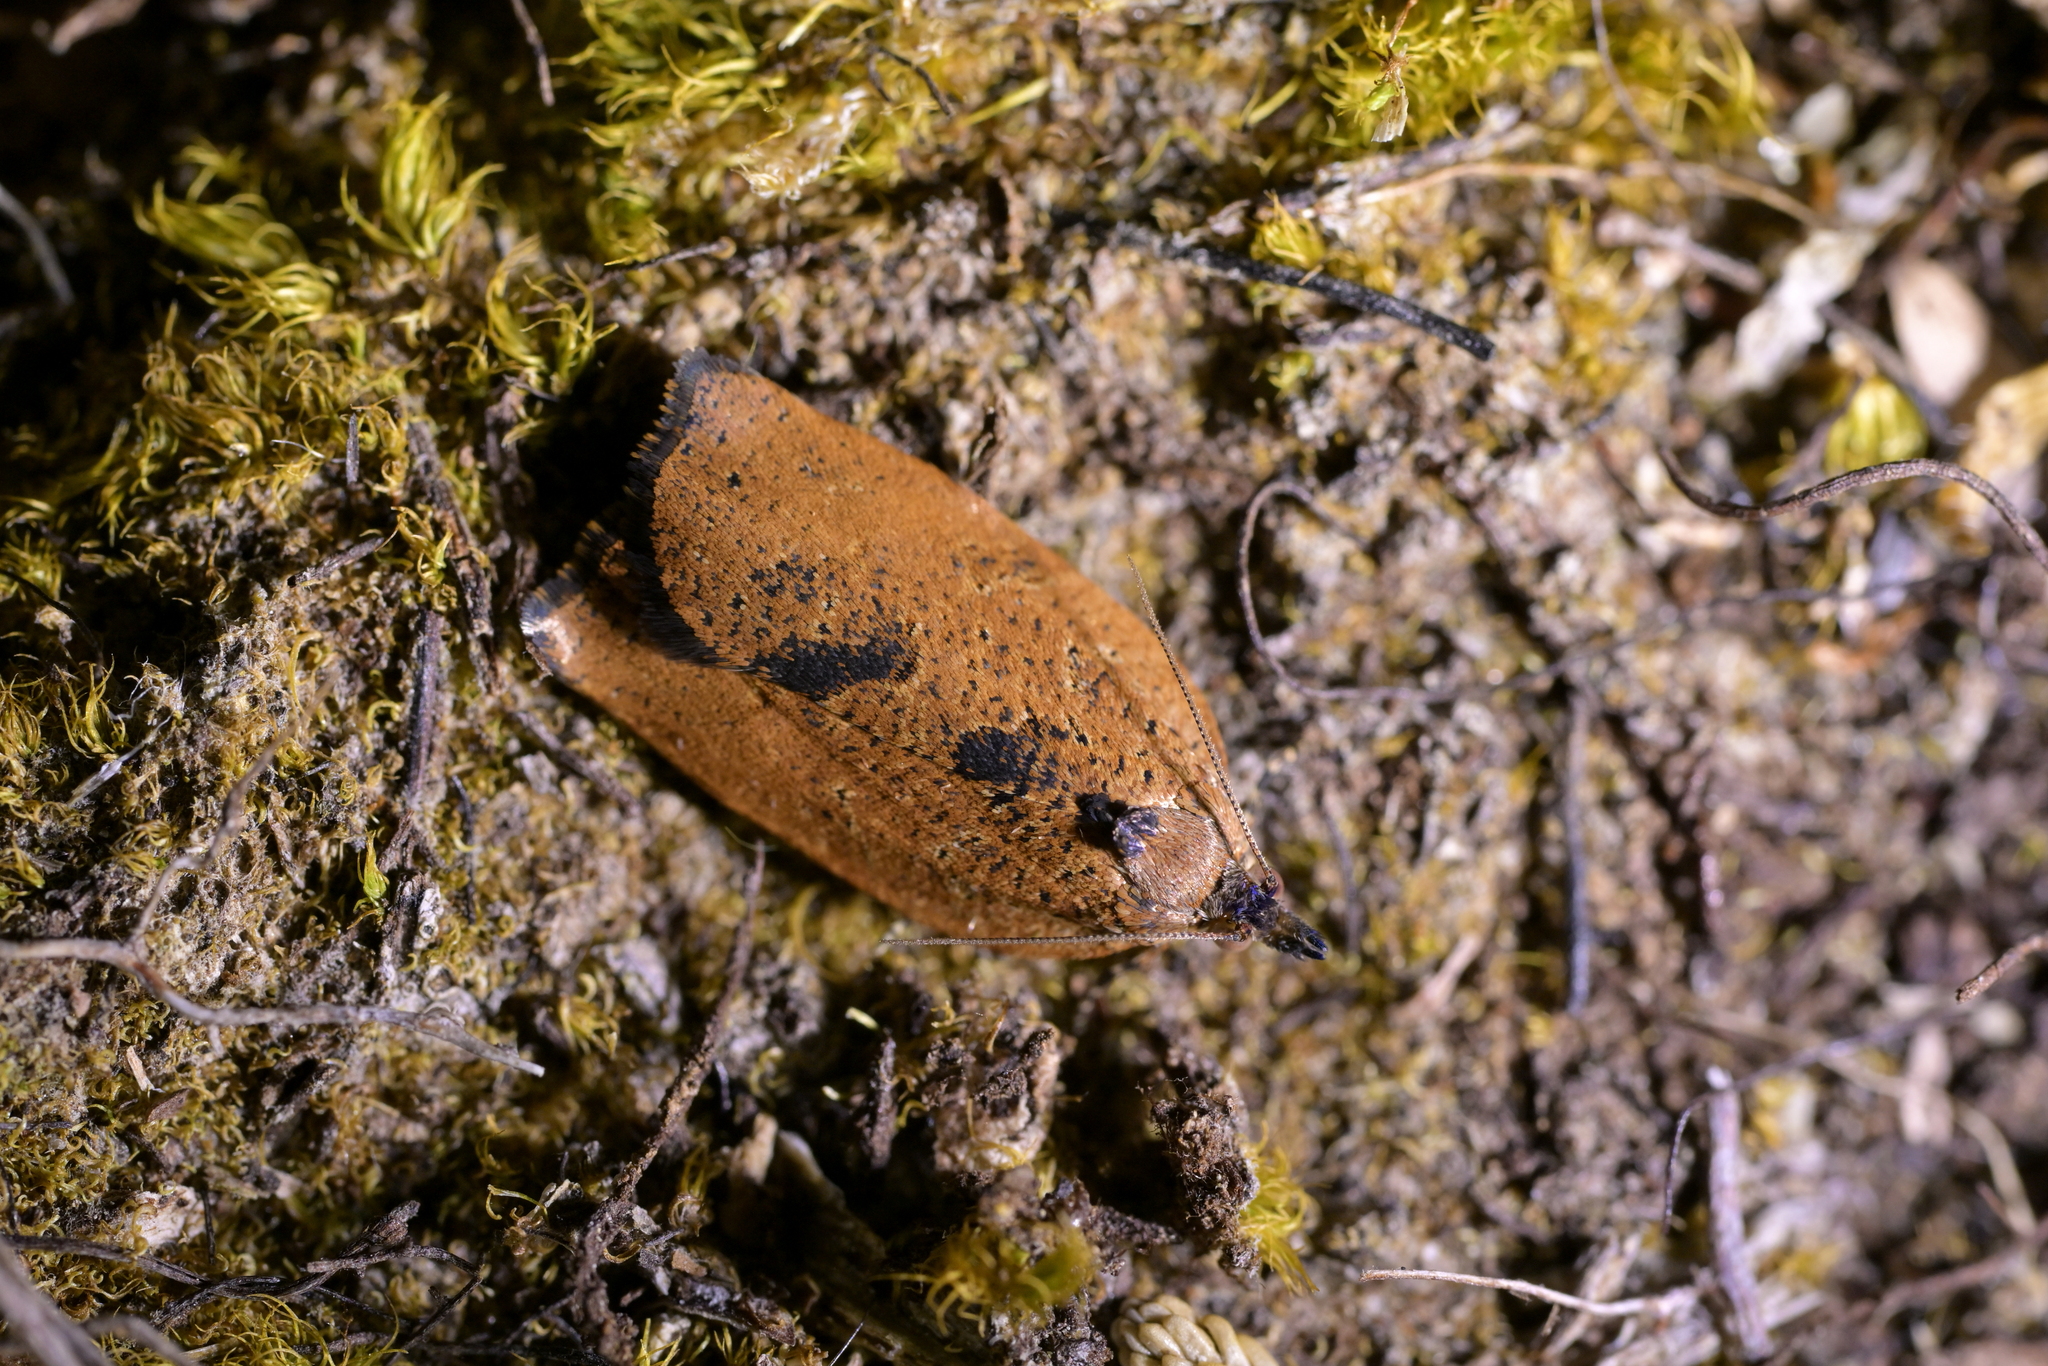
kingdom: Animalia
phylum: Arthropoda
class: Insecta
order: Lepidoptera
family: Tortricidae
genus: Epiphyas
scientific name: Epiphyas postvittana
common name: Light brown apple moth
